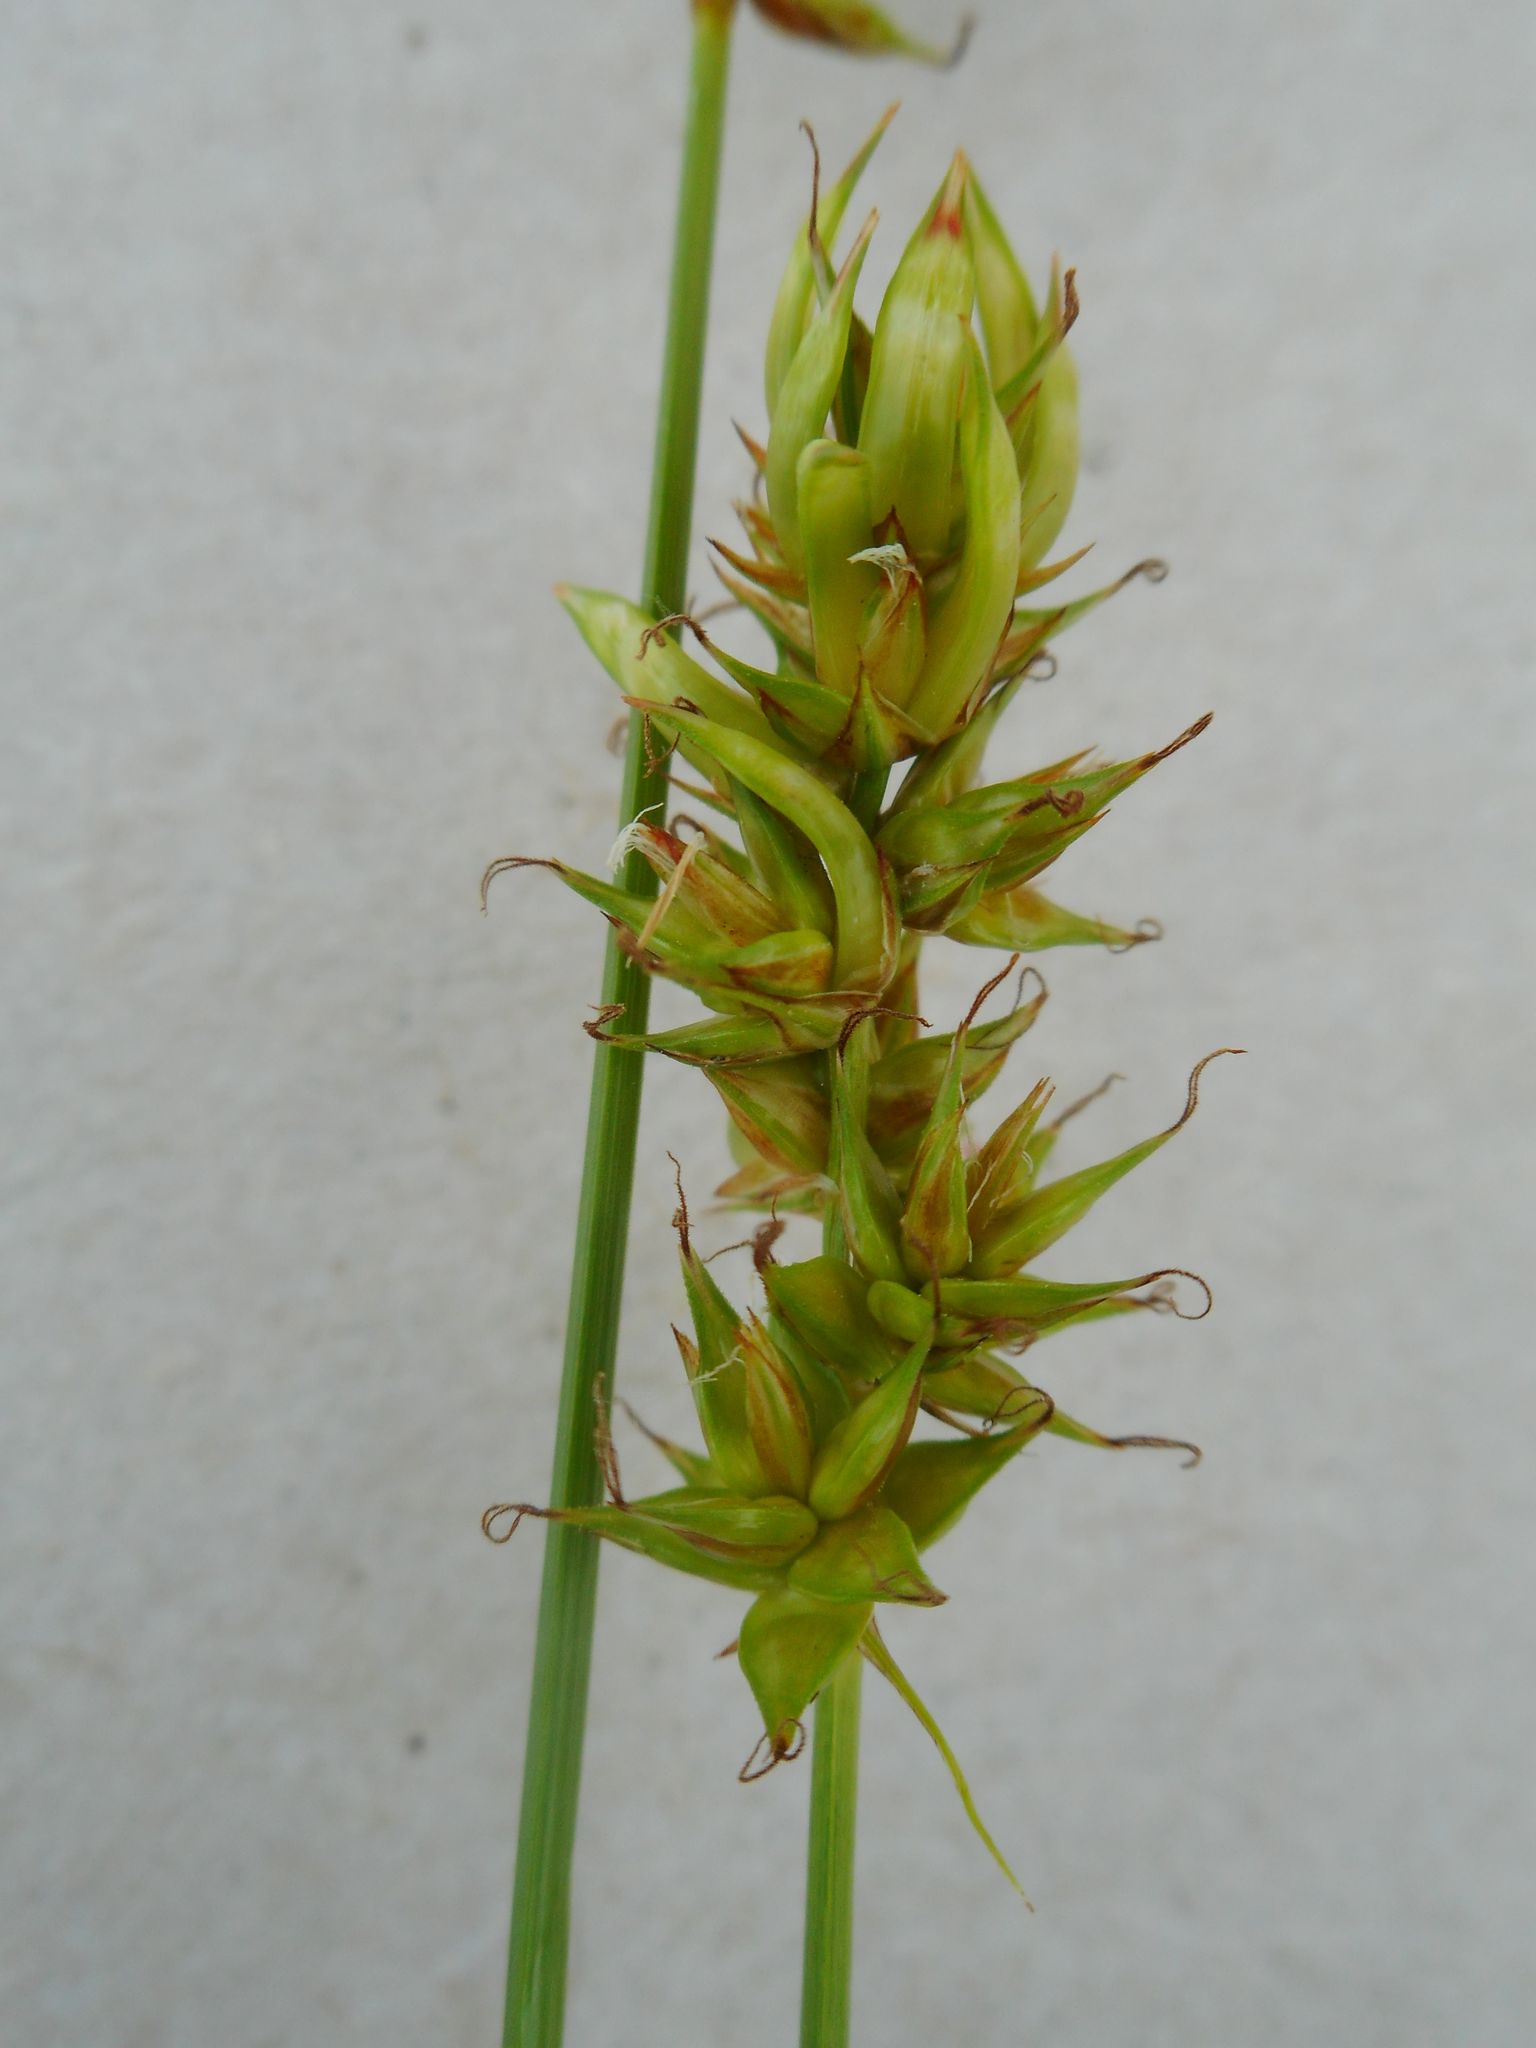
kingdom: Plantae
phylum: Tracheophyta
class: Liliopsida
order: Poales
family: Cyperaceae
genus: Carex
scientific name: Carex spicata
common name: Spiked sedge
